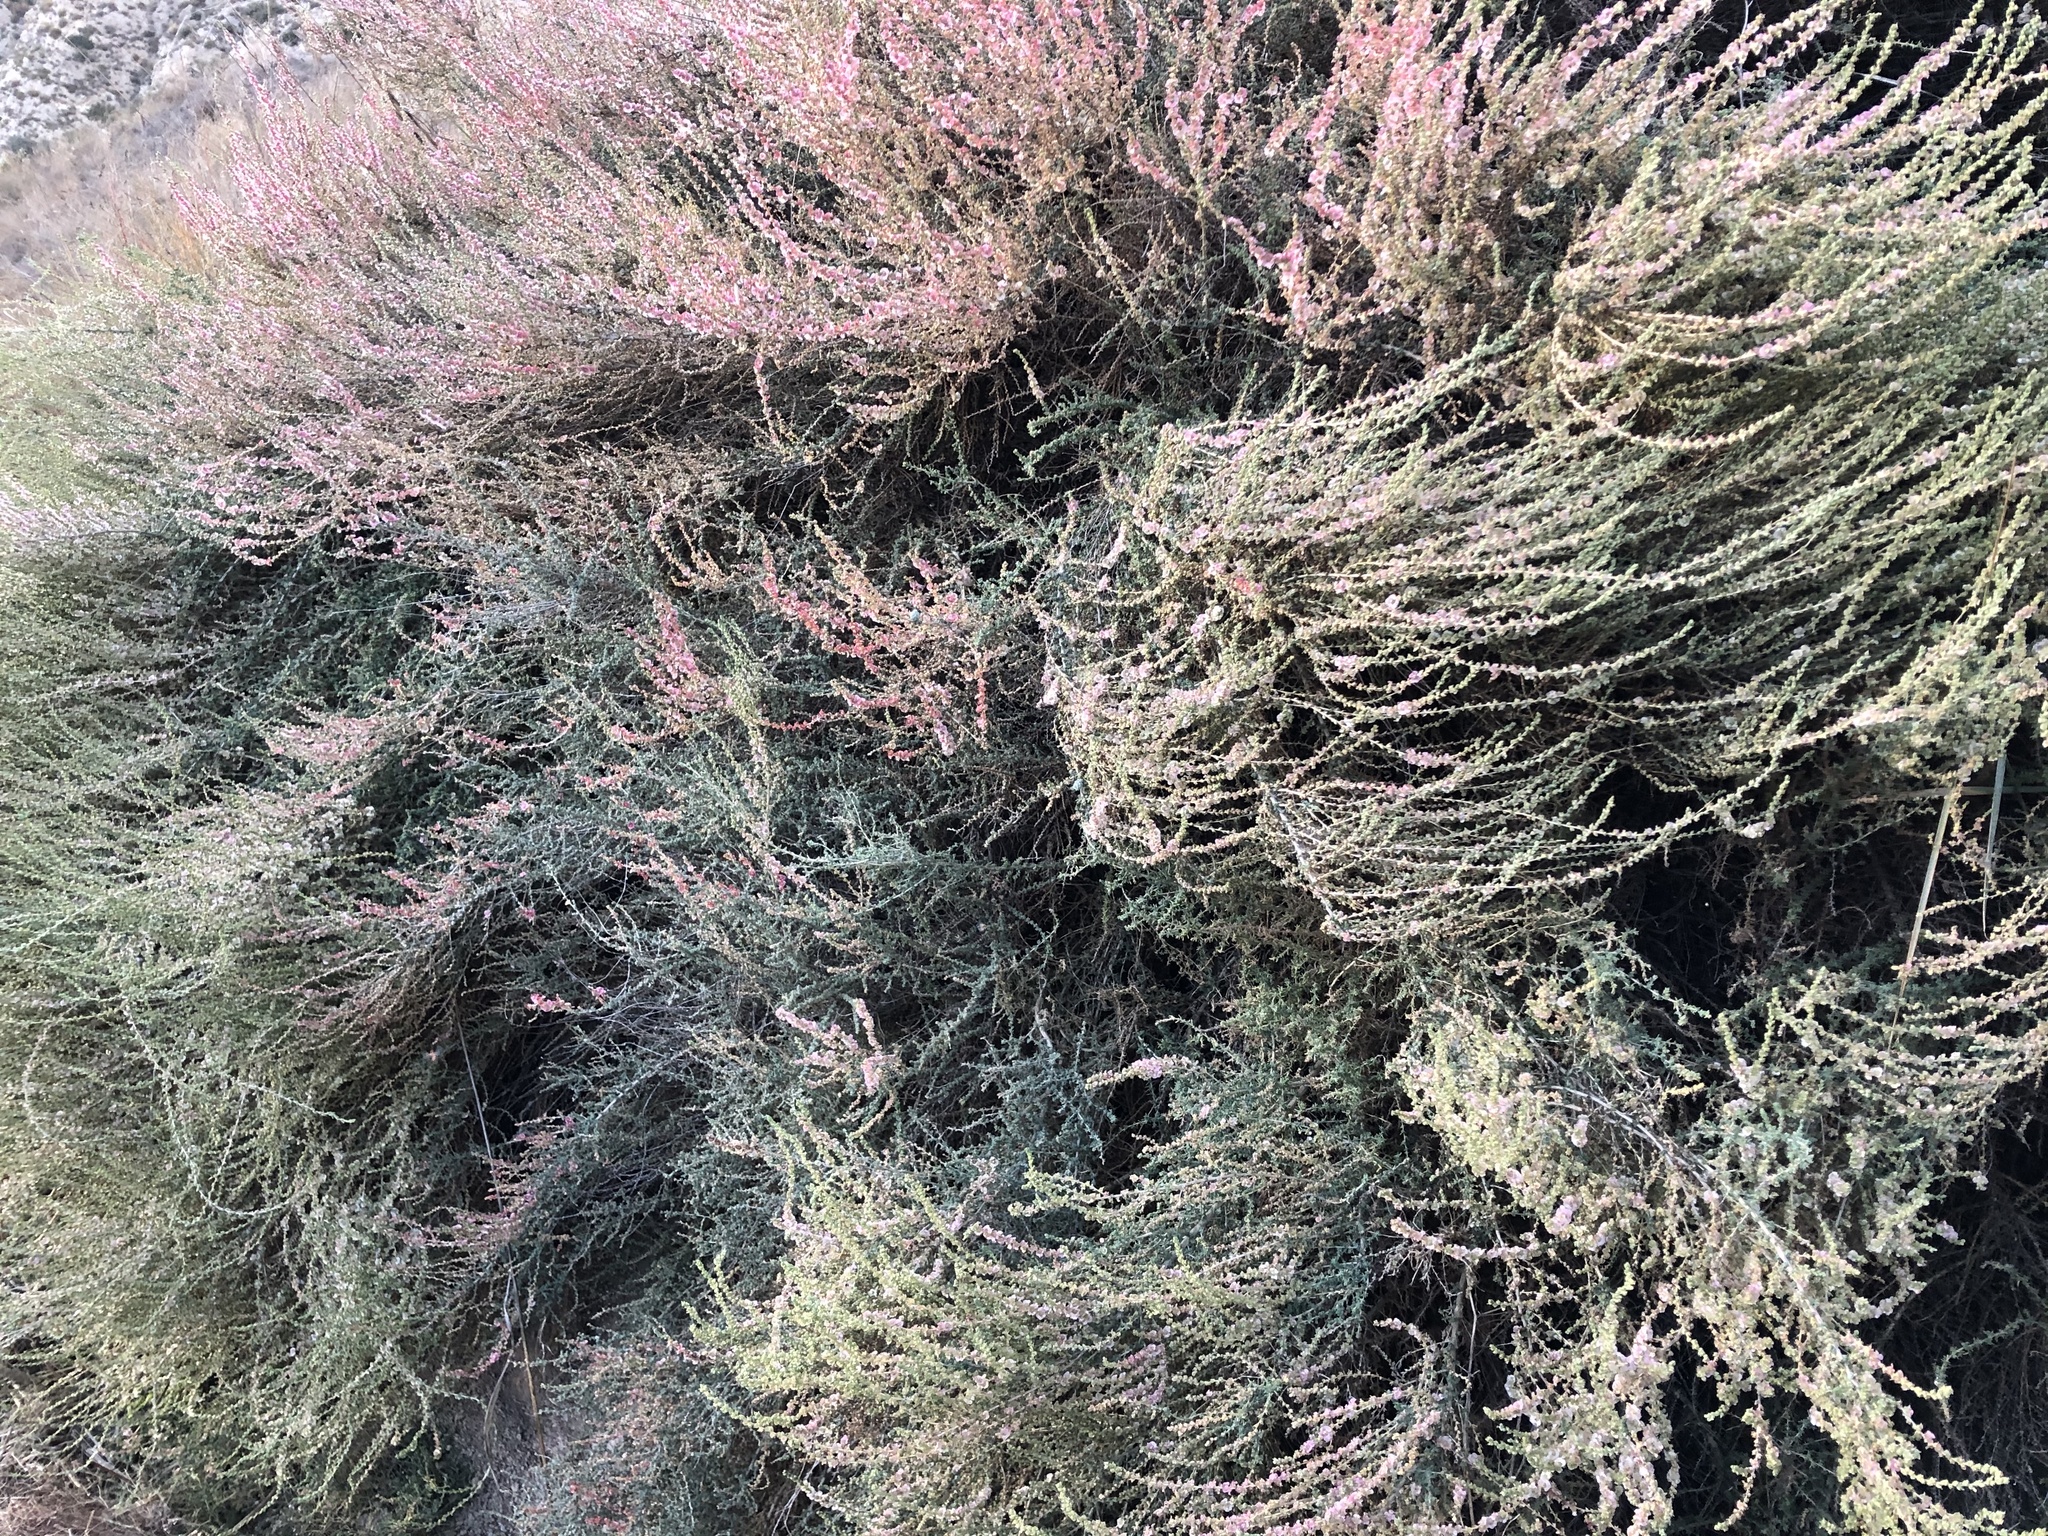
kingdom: Plantae
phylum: Tracheophyta
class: Magnoliopsida
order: Caryophyllales
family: Amaranthaceae
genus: Nitrosalsola
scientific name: Nitrosalsola vermiculata
